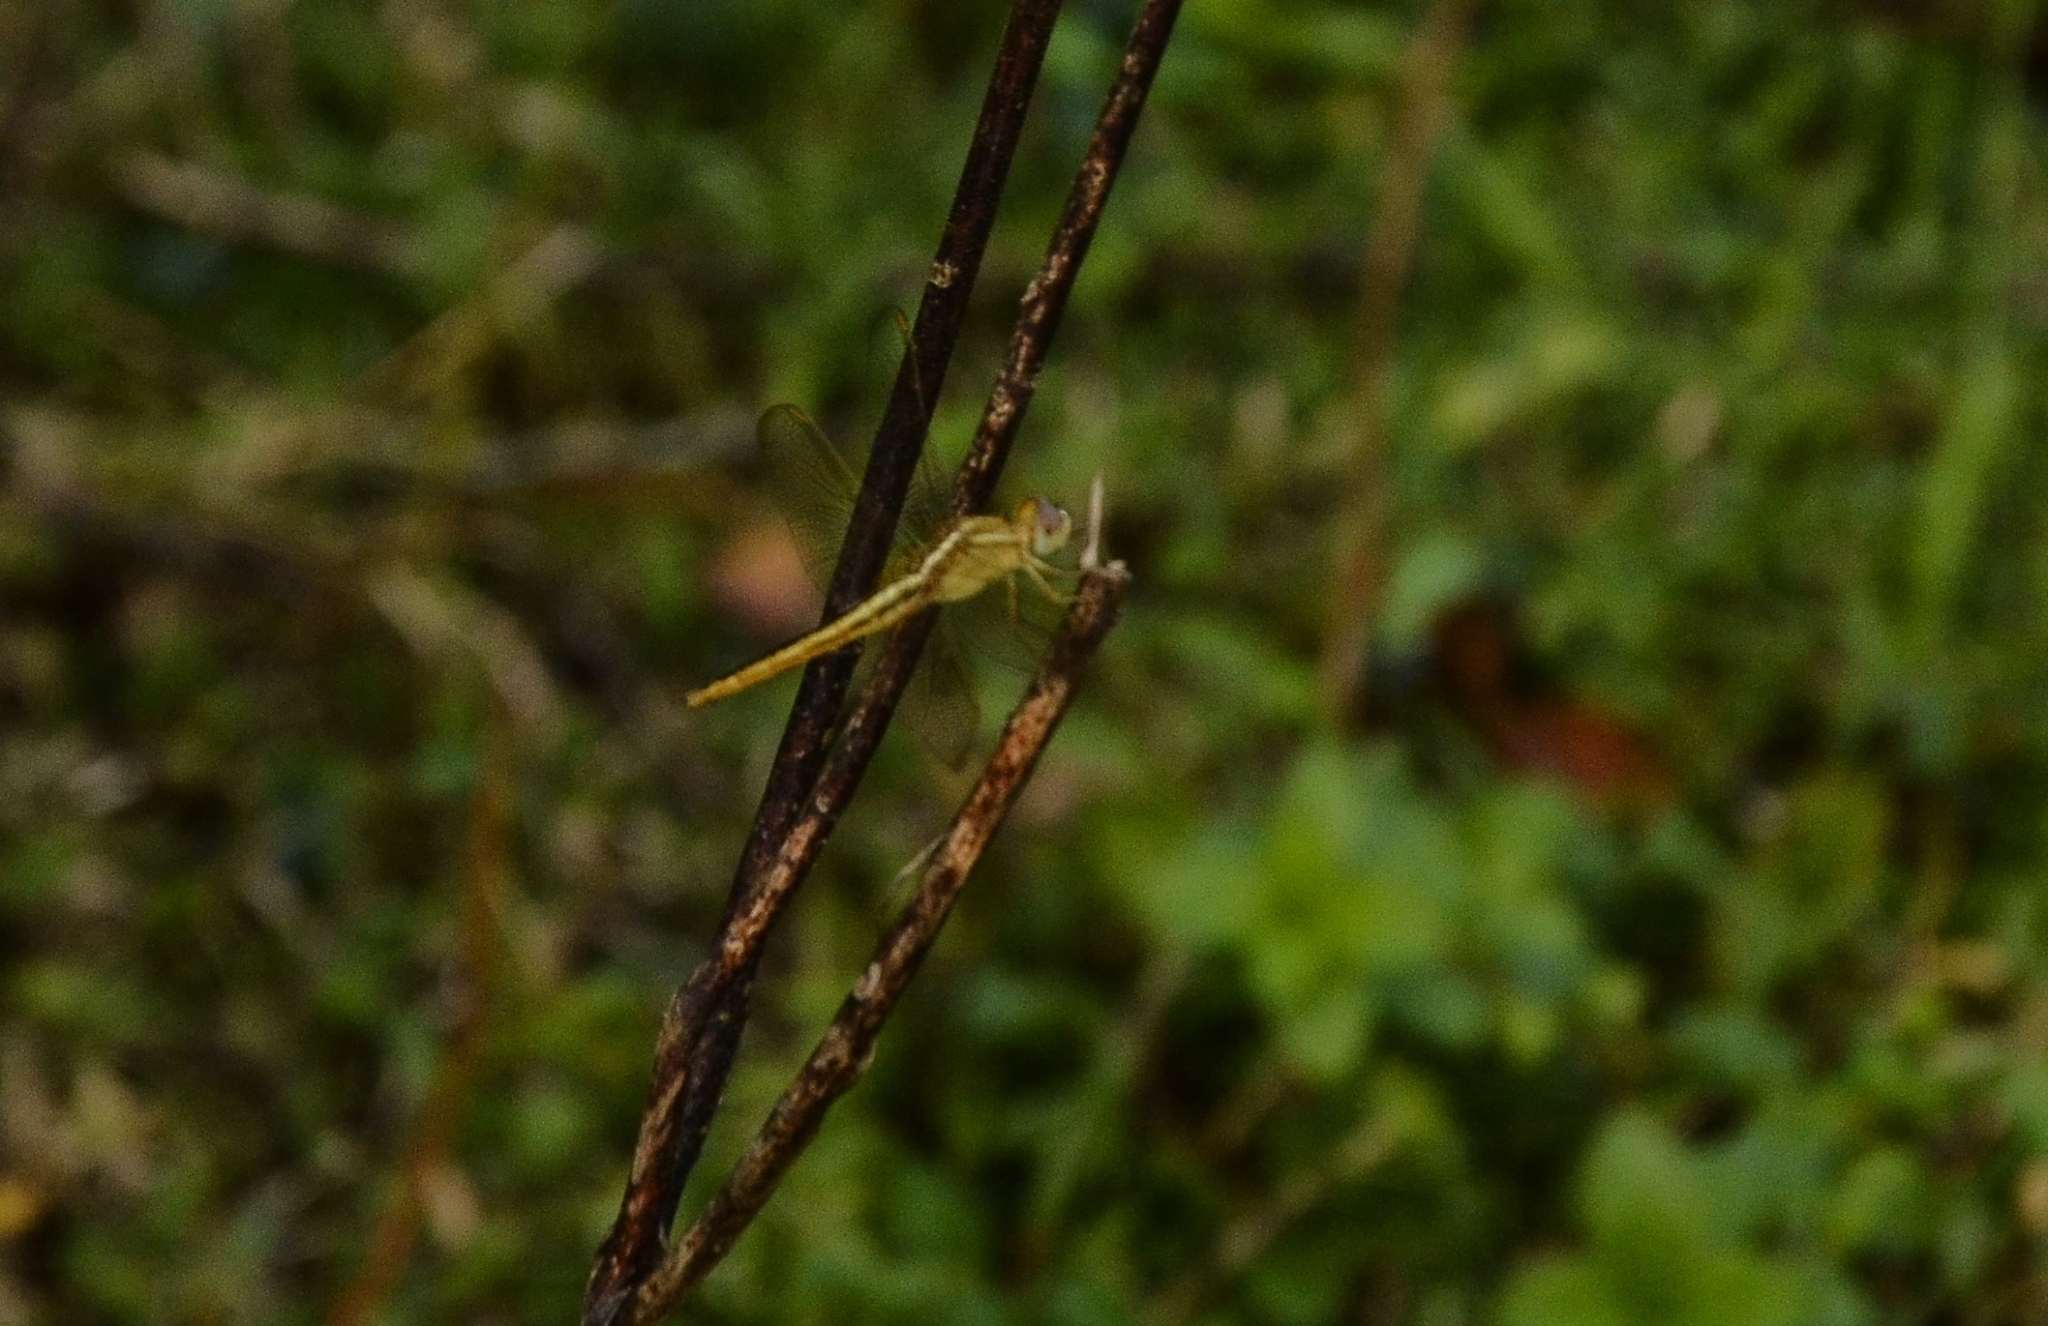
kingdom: Animalia
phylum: Arthropoda
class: Insecta
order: Odonata
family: Libellulidae
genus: Crocothemis
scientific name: Crocothemis servilia
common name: Scarlet skimmer
